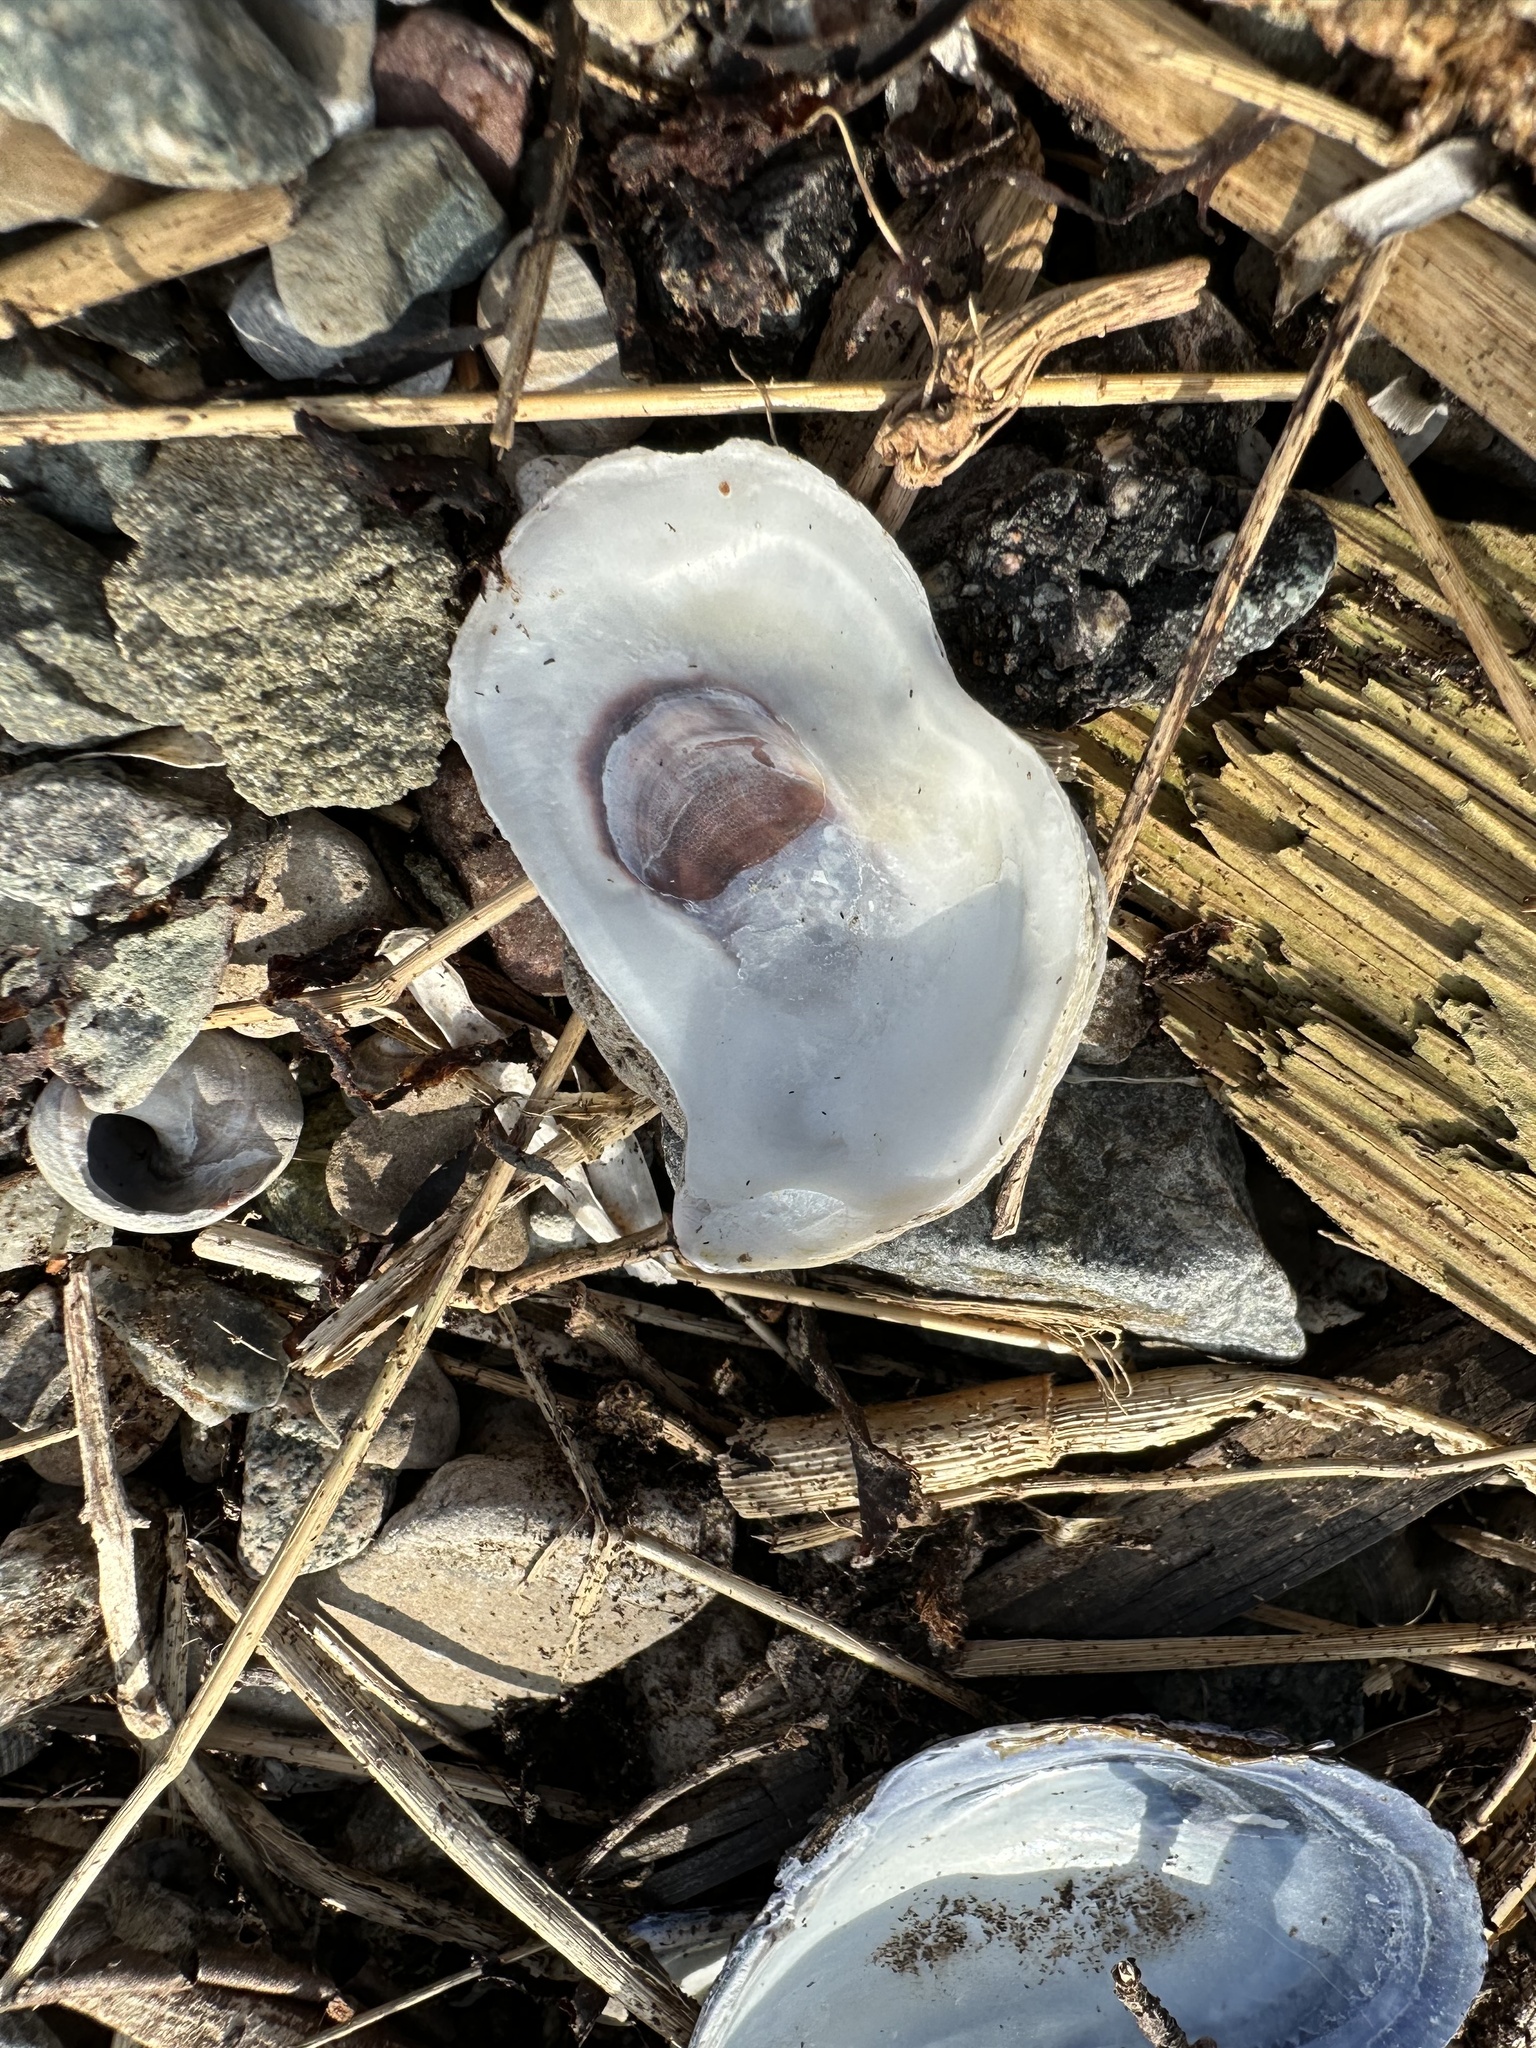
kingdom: Animalia
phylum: Mollusca
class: Bivalvia
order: Ostreida
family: Ostreidae
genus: Crassostrea
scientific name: Crassostrea virginica
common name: American oyster
